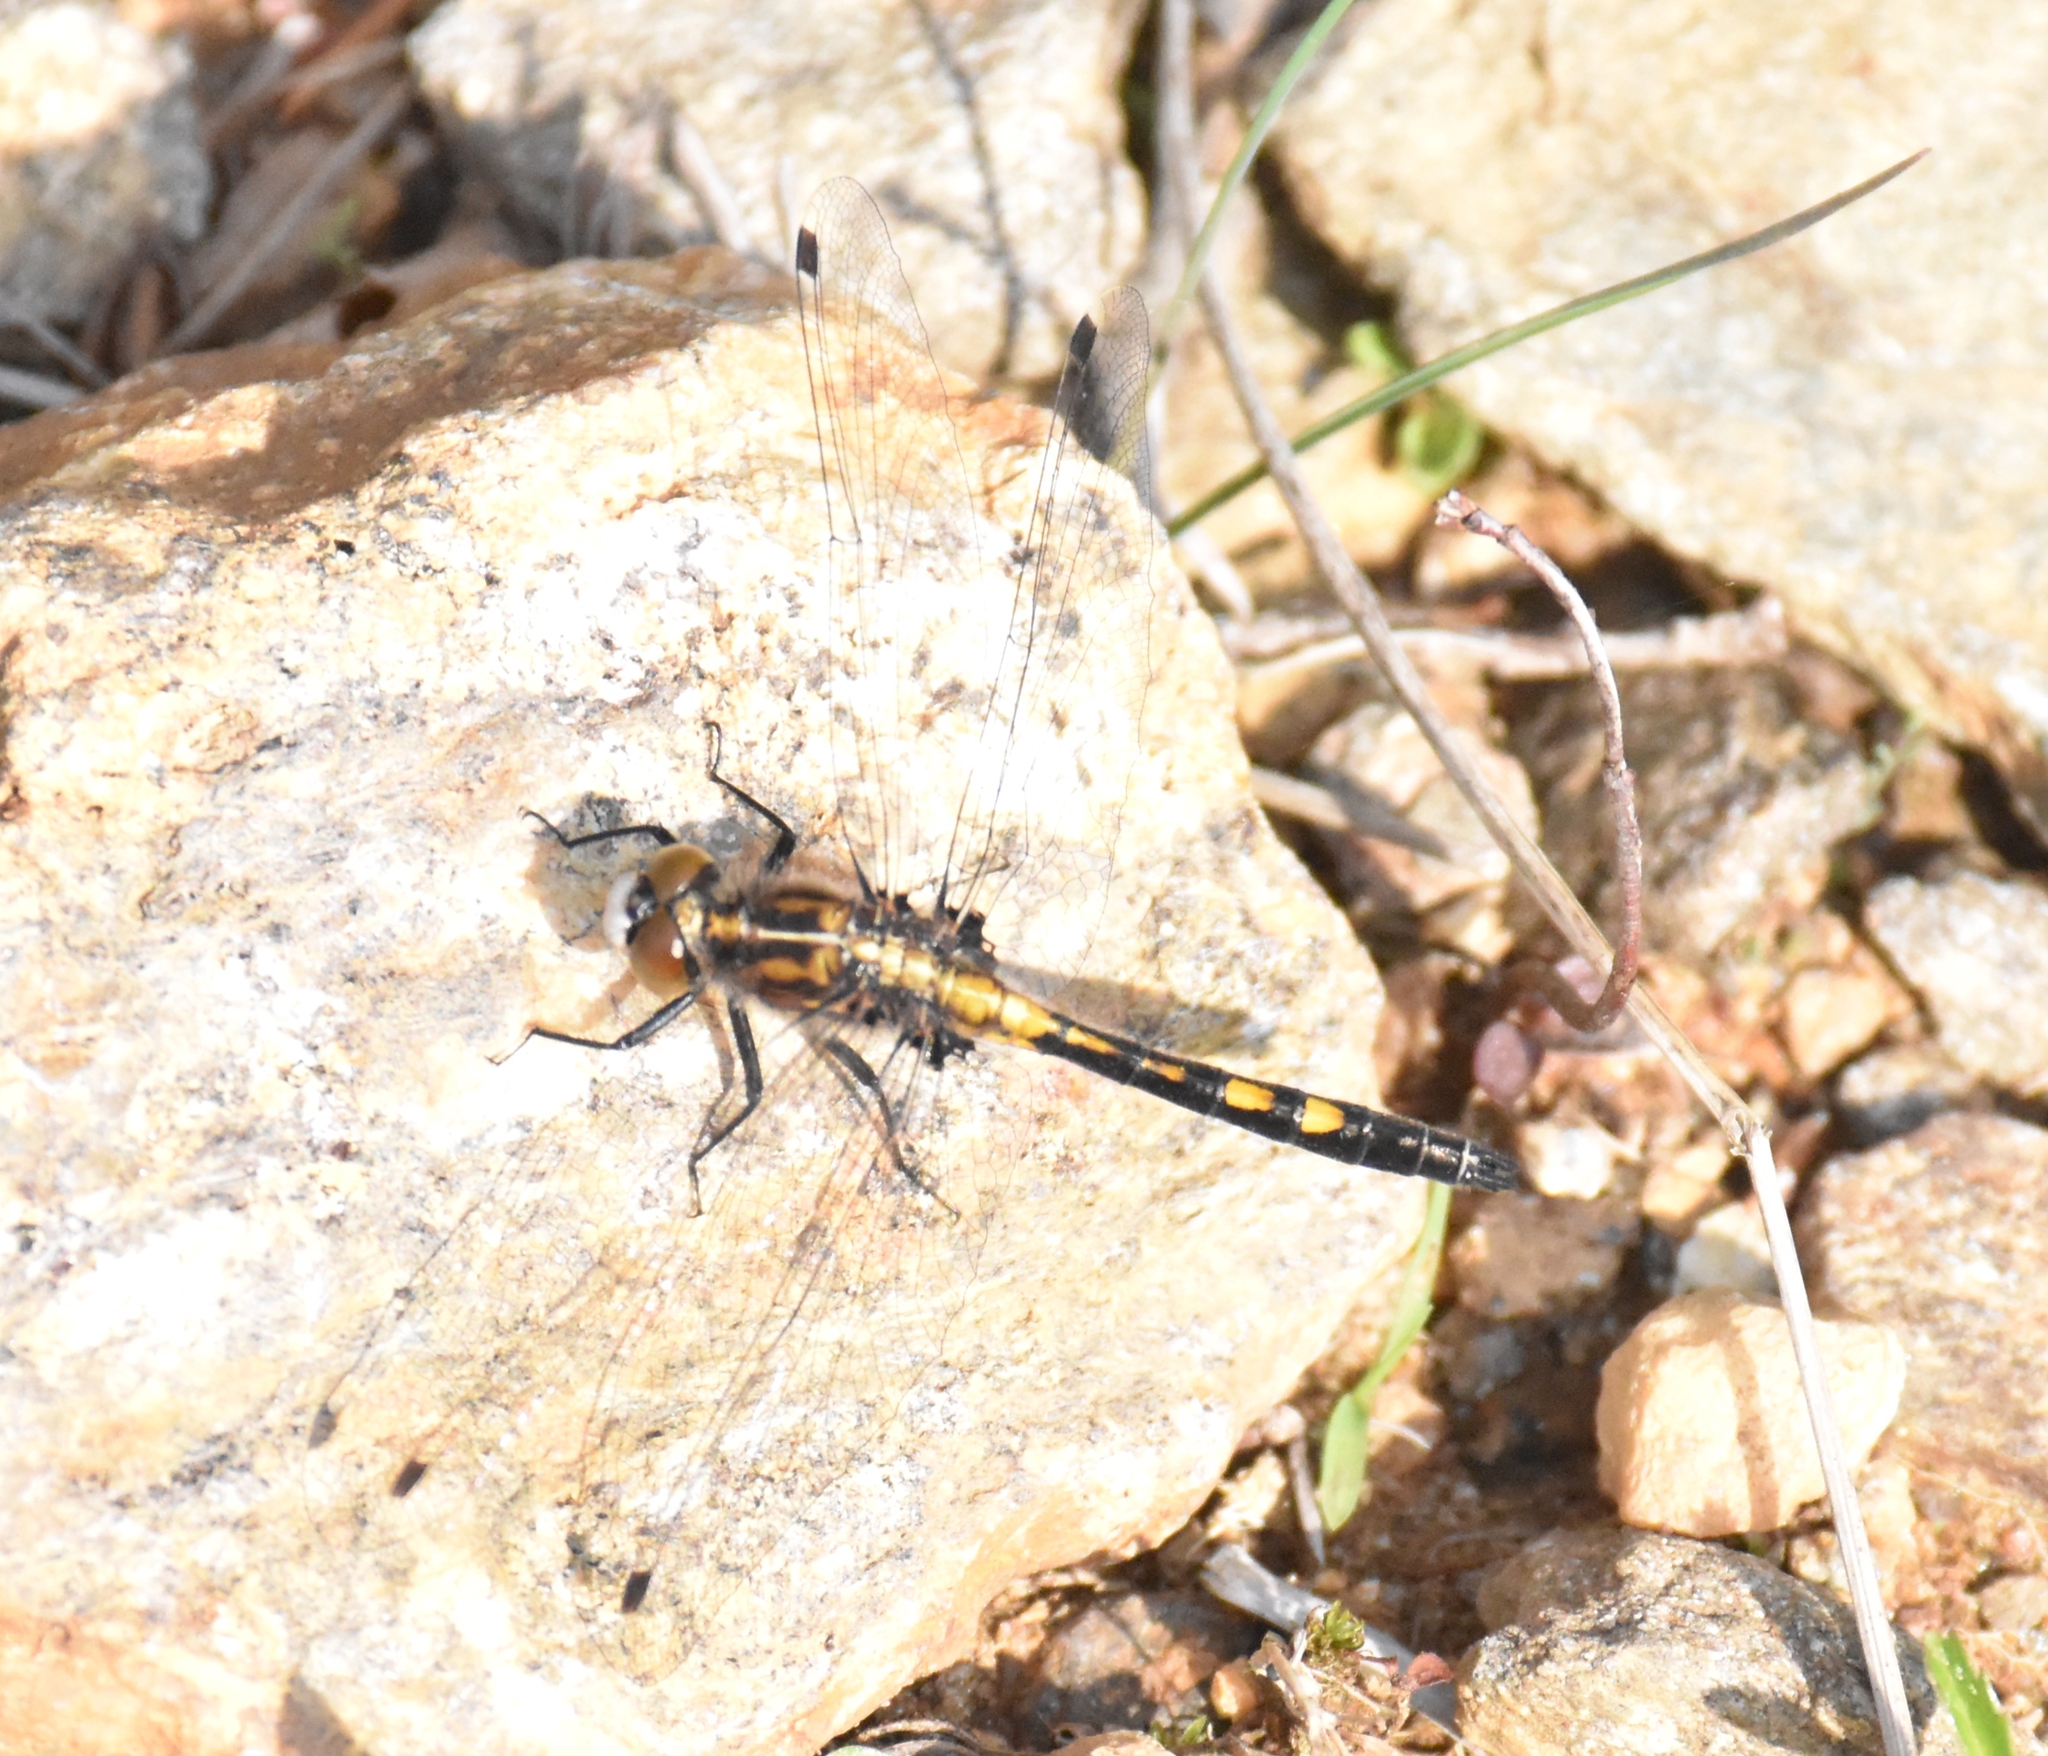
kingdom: Animalia
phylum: Arthropoda
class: Insecta
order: Odonata
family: Libellulidae
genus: Leucorrhinia
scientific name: Leucorrhinia intacta
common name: Dot-tailed whiteface
